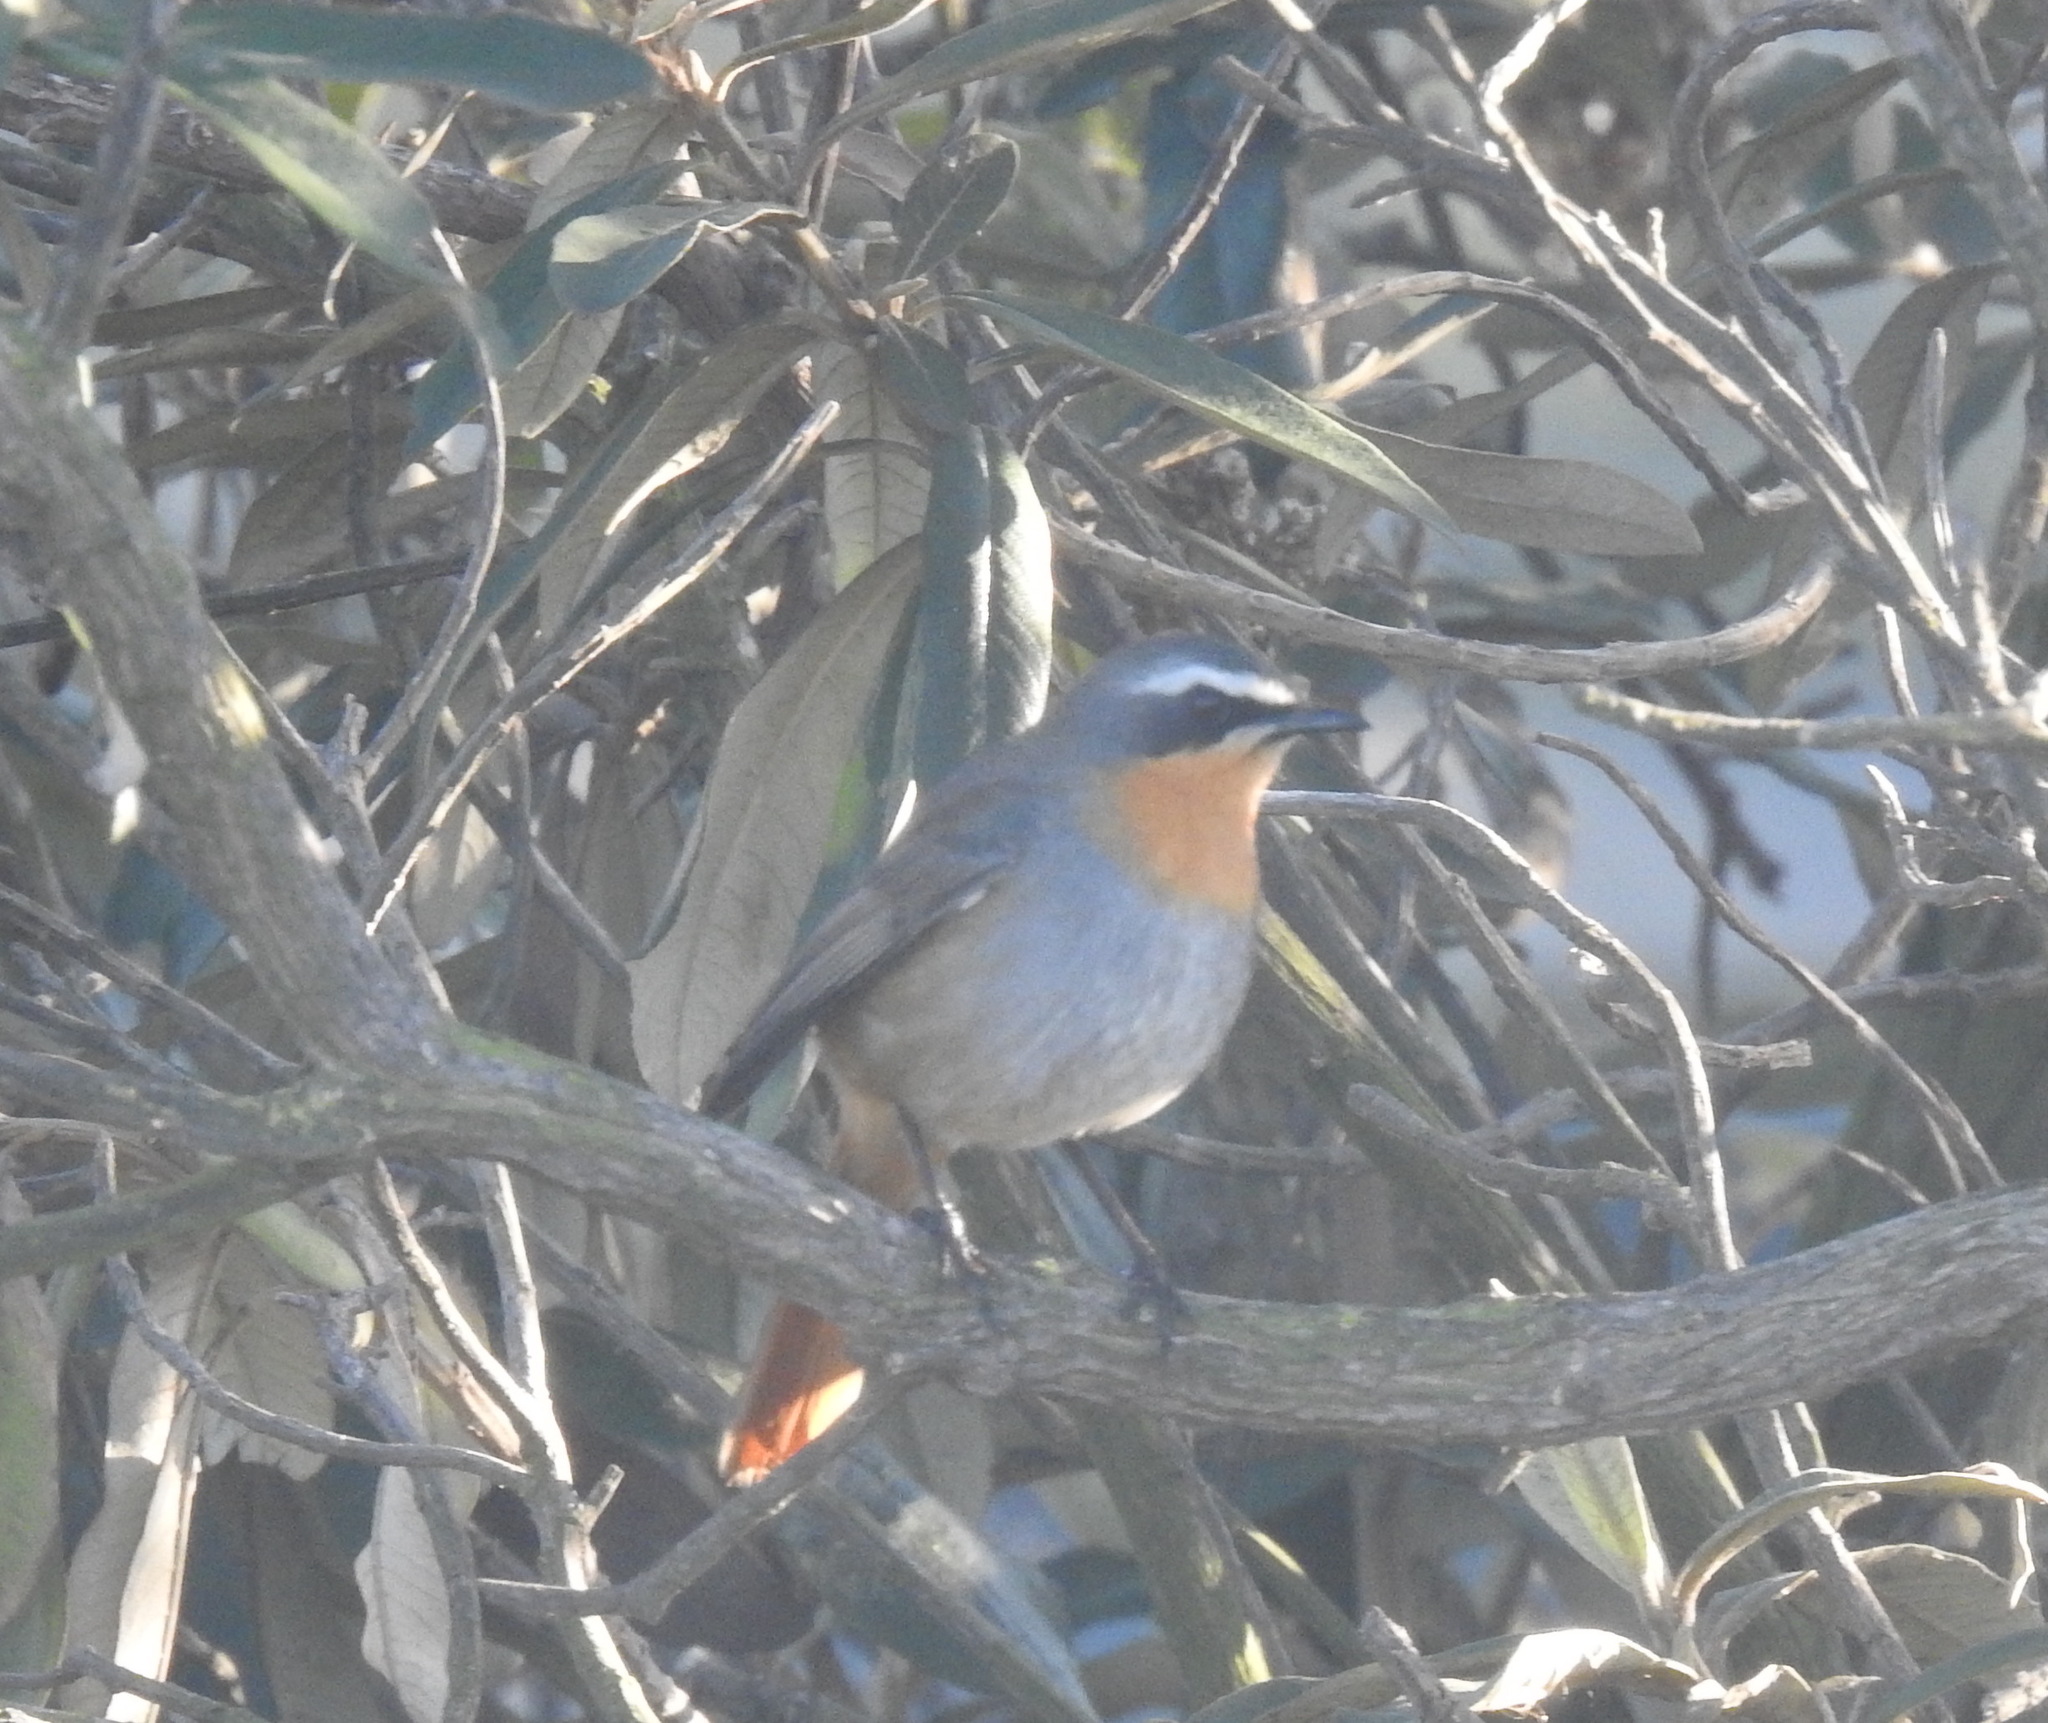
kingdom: Animalia
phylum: Chordata
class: Aves
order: Passeriformes
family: Muscicapidae
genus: Cossypha
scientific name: Cossypha caffra
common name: Cape robin-chat
